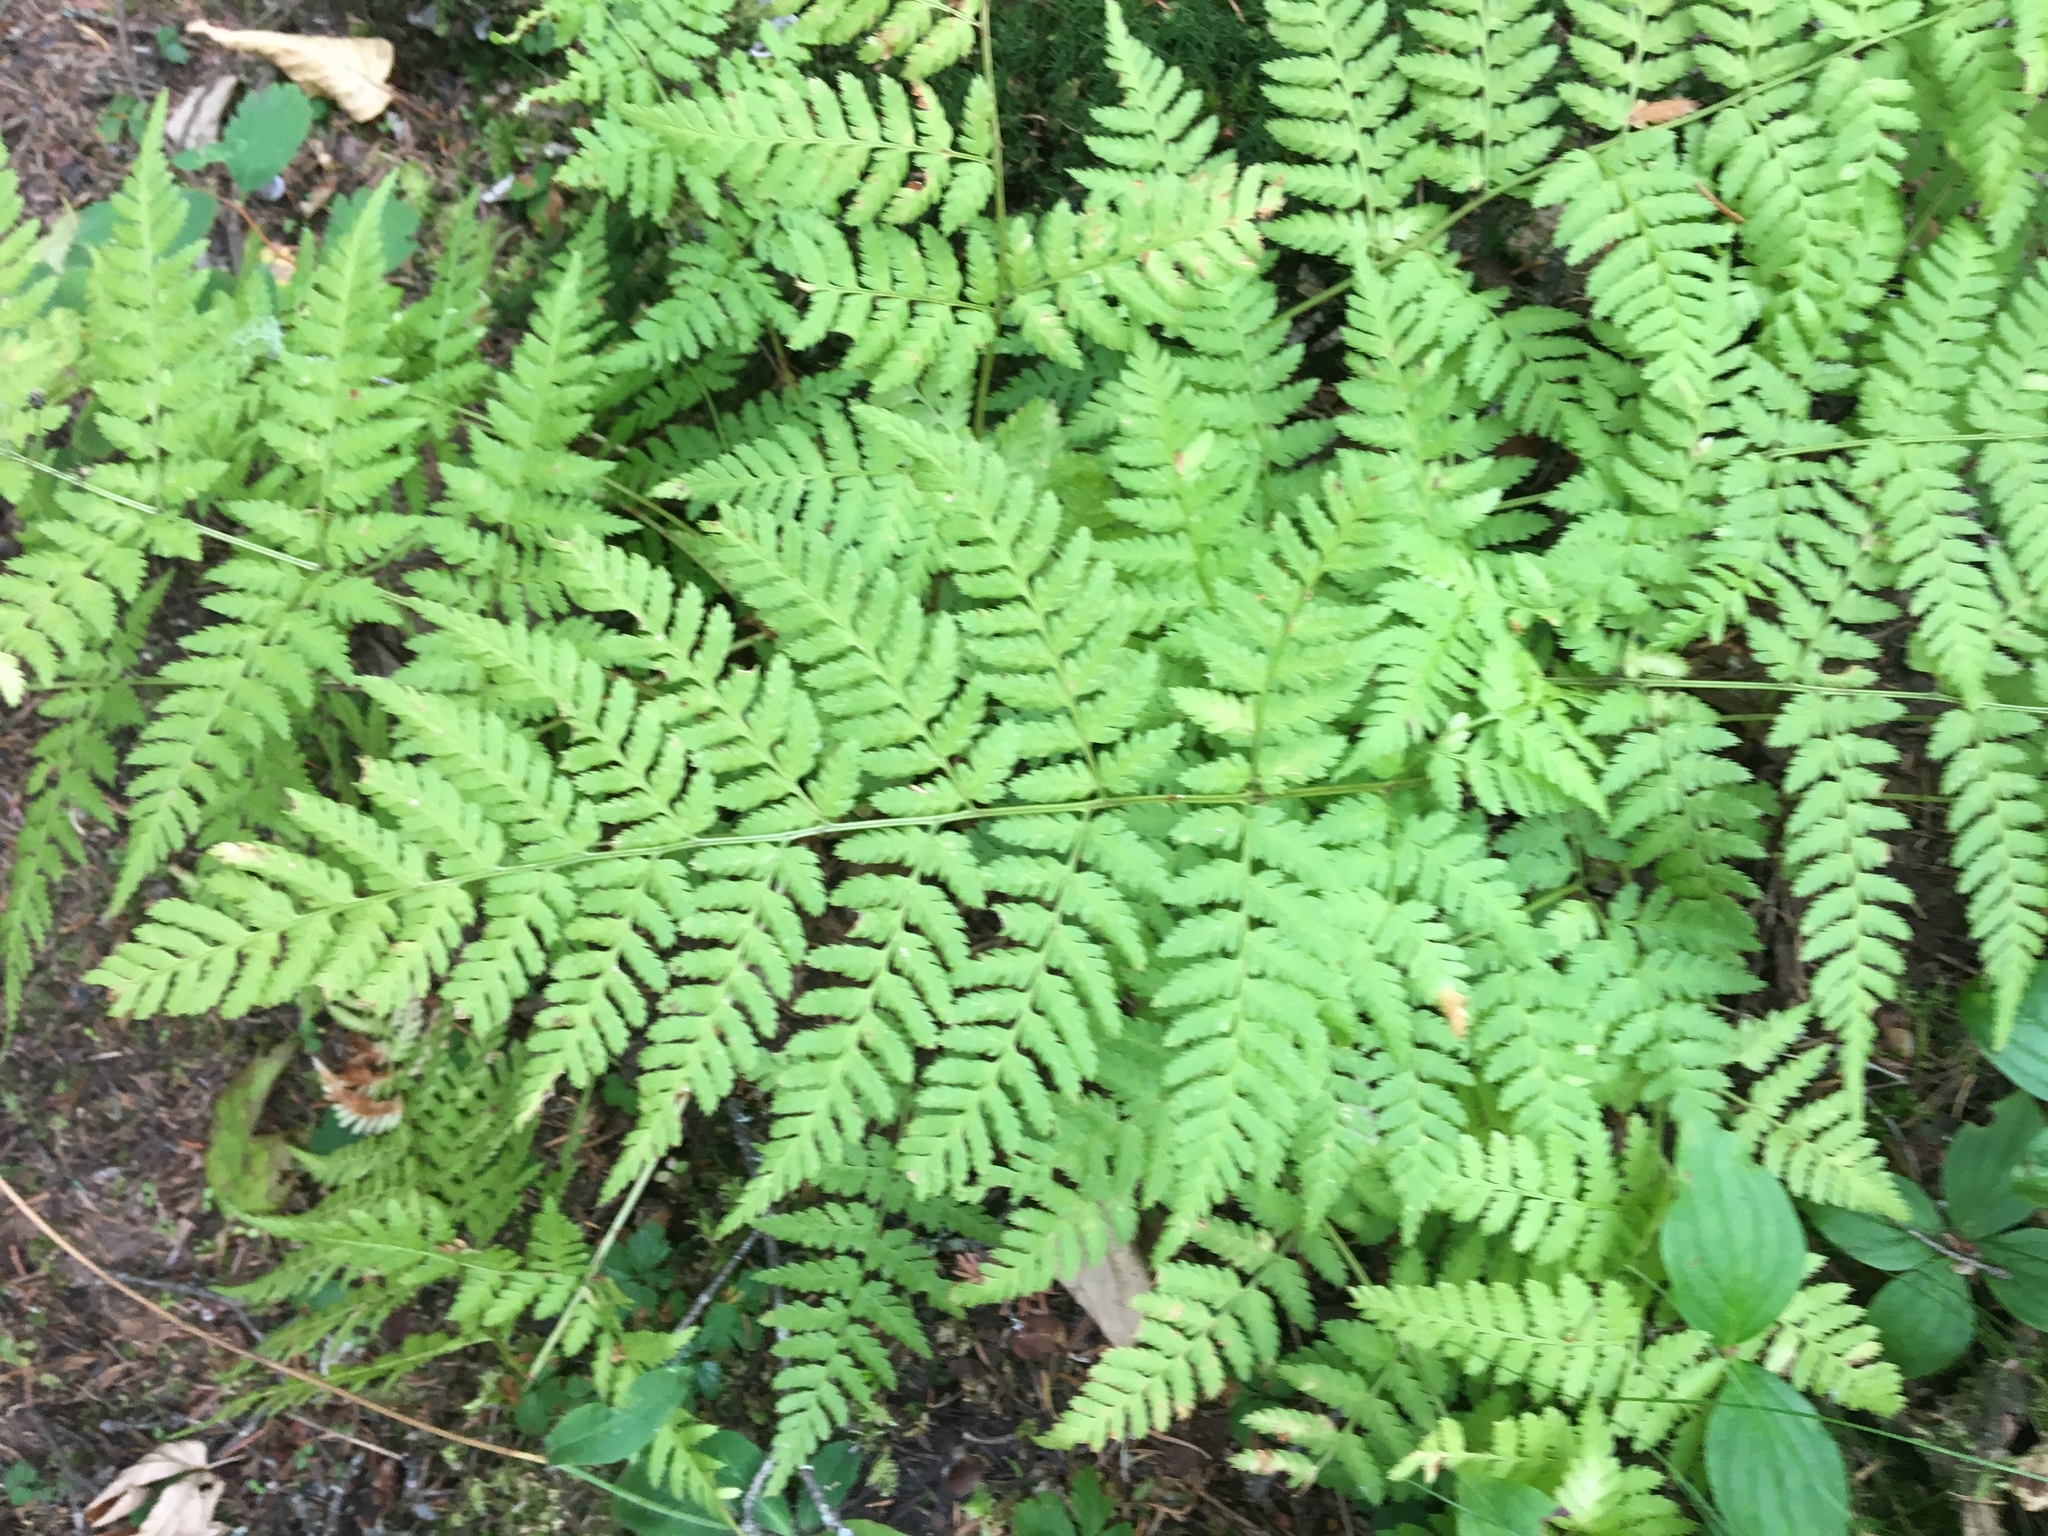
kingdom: Plantae
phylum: Tracheophyta
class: Polypodiopsida
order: Polypodiales
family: Dryopteridaceae
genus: Dryopteris
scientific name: Dryopteris expansa
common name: Northern buckler fern
